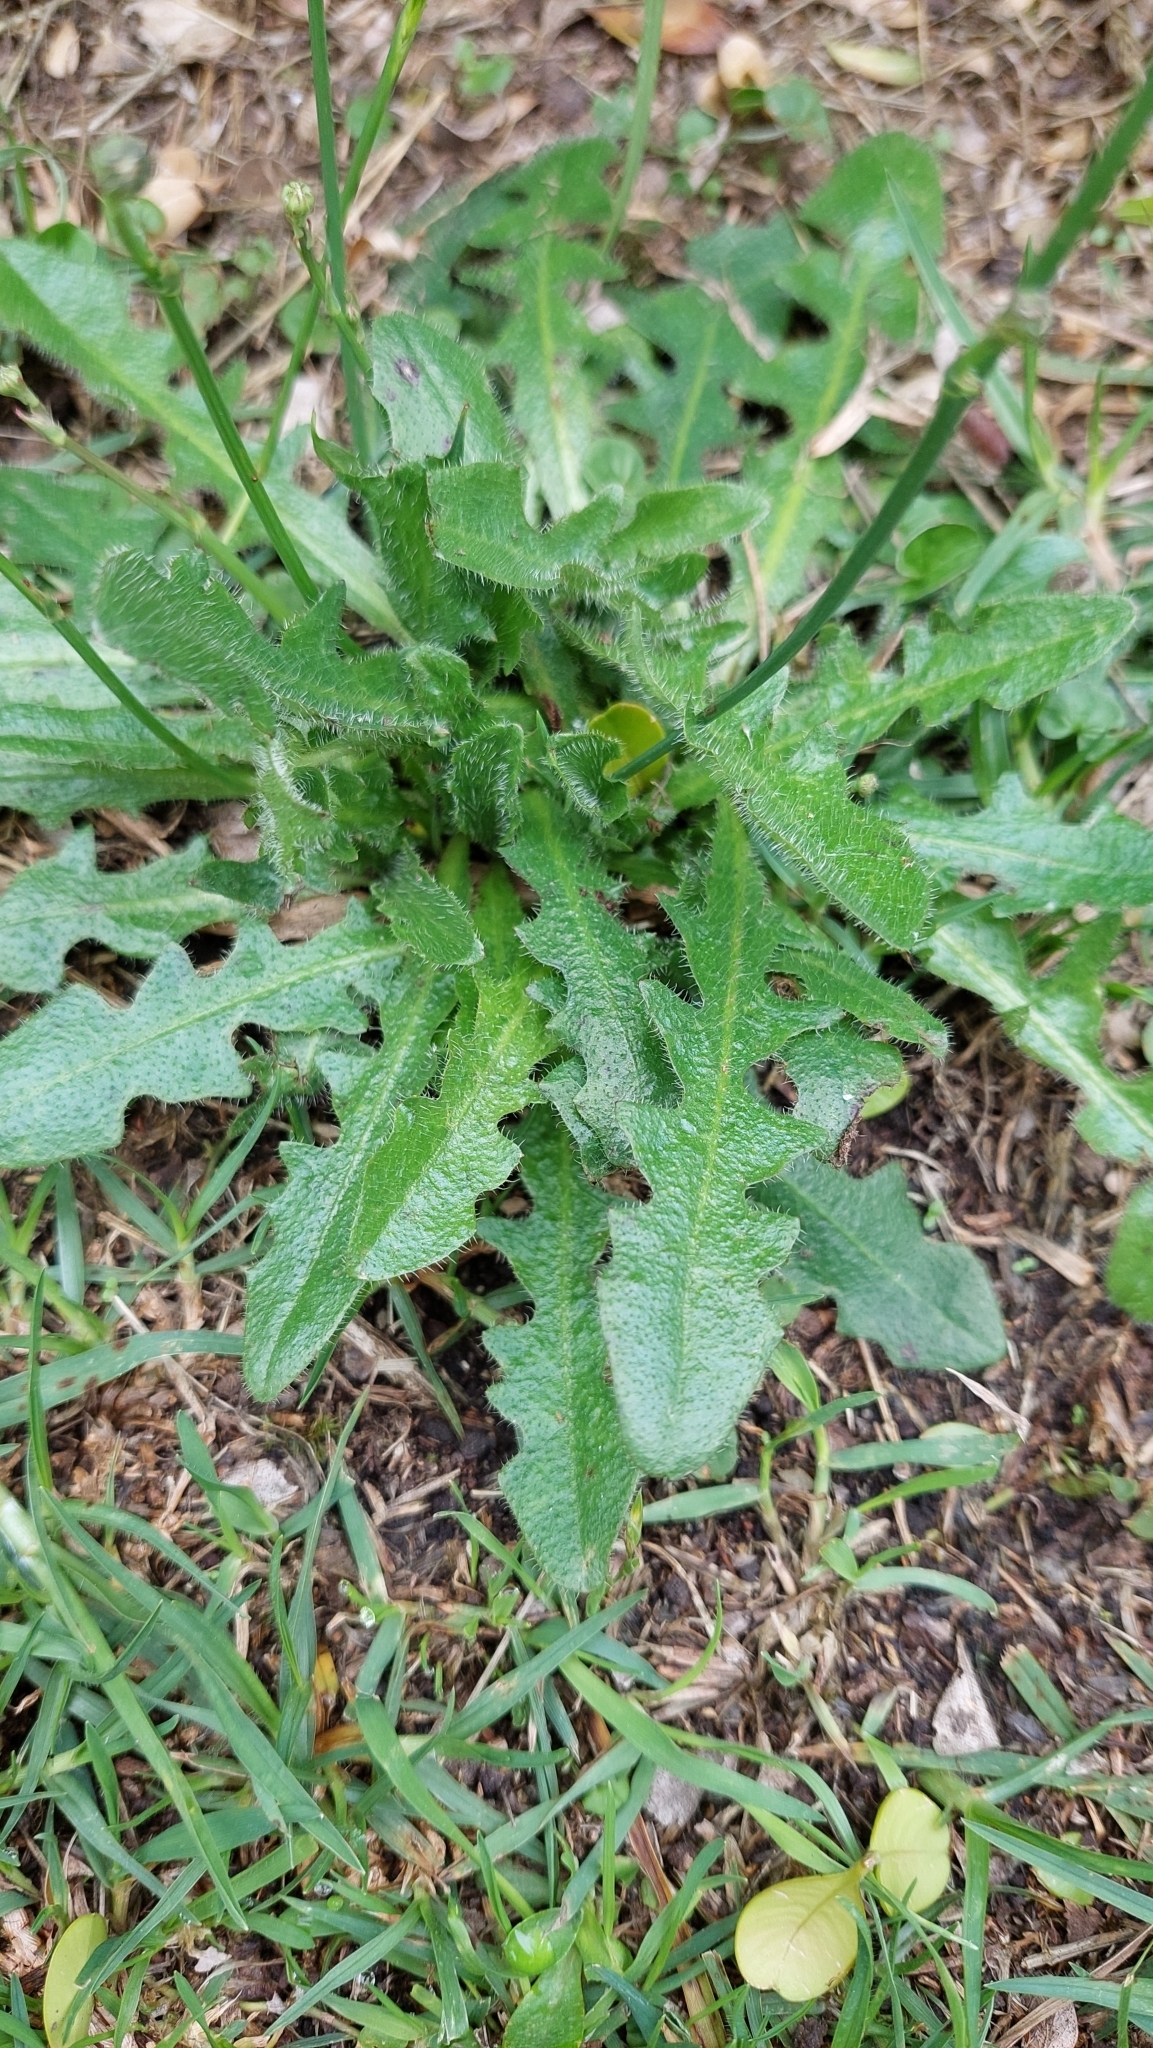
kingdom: Plantae
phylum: Tracheophyta
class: Magnoliopsida
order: Asterales
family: Asteraceae
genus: Hypochaeris
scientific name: Hypochaeris radicata
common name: Flatweed
